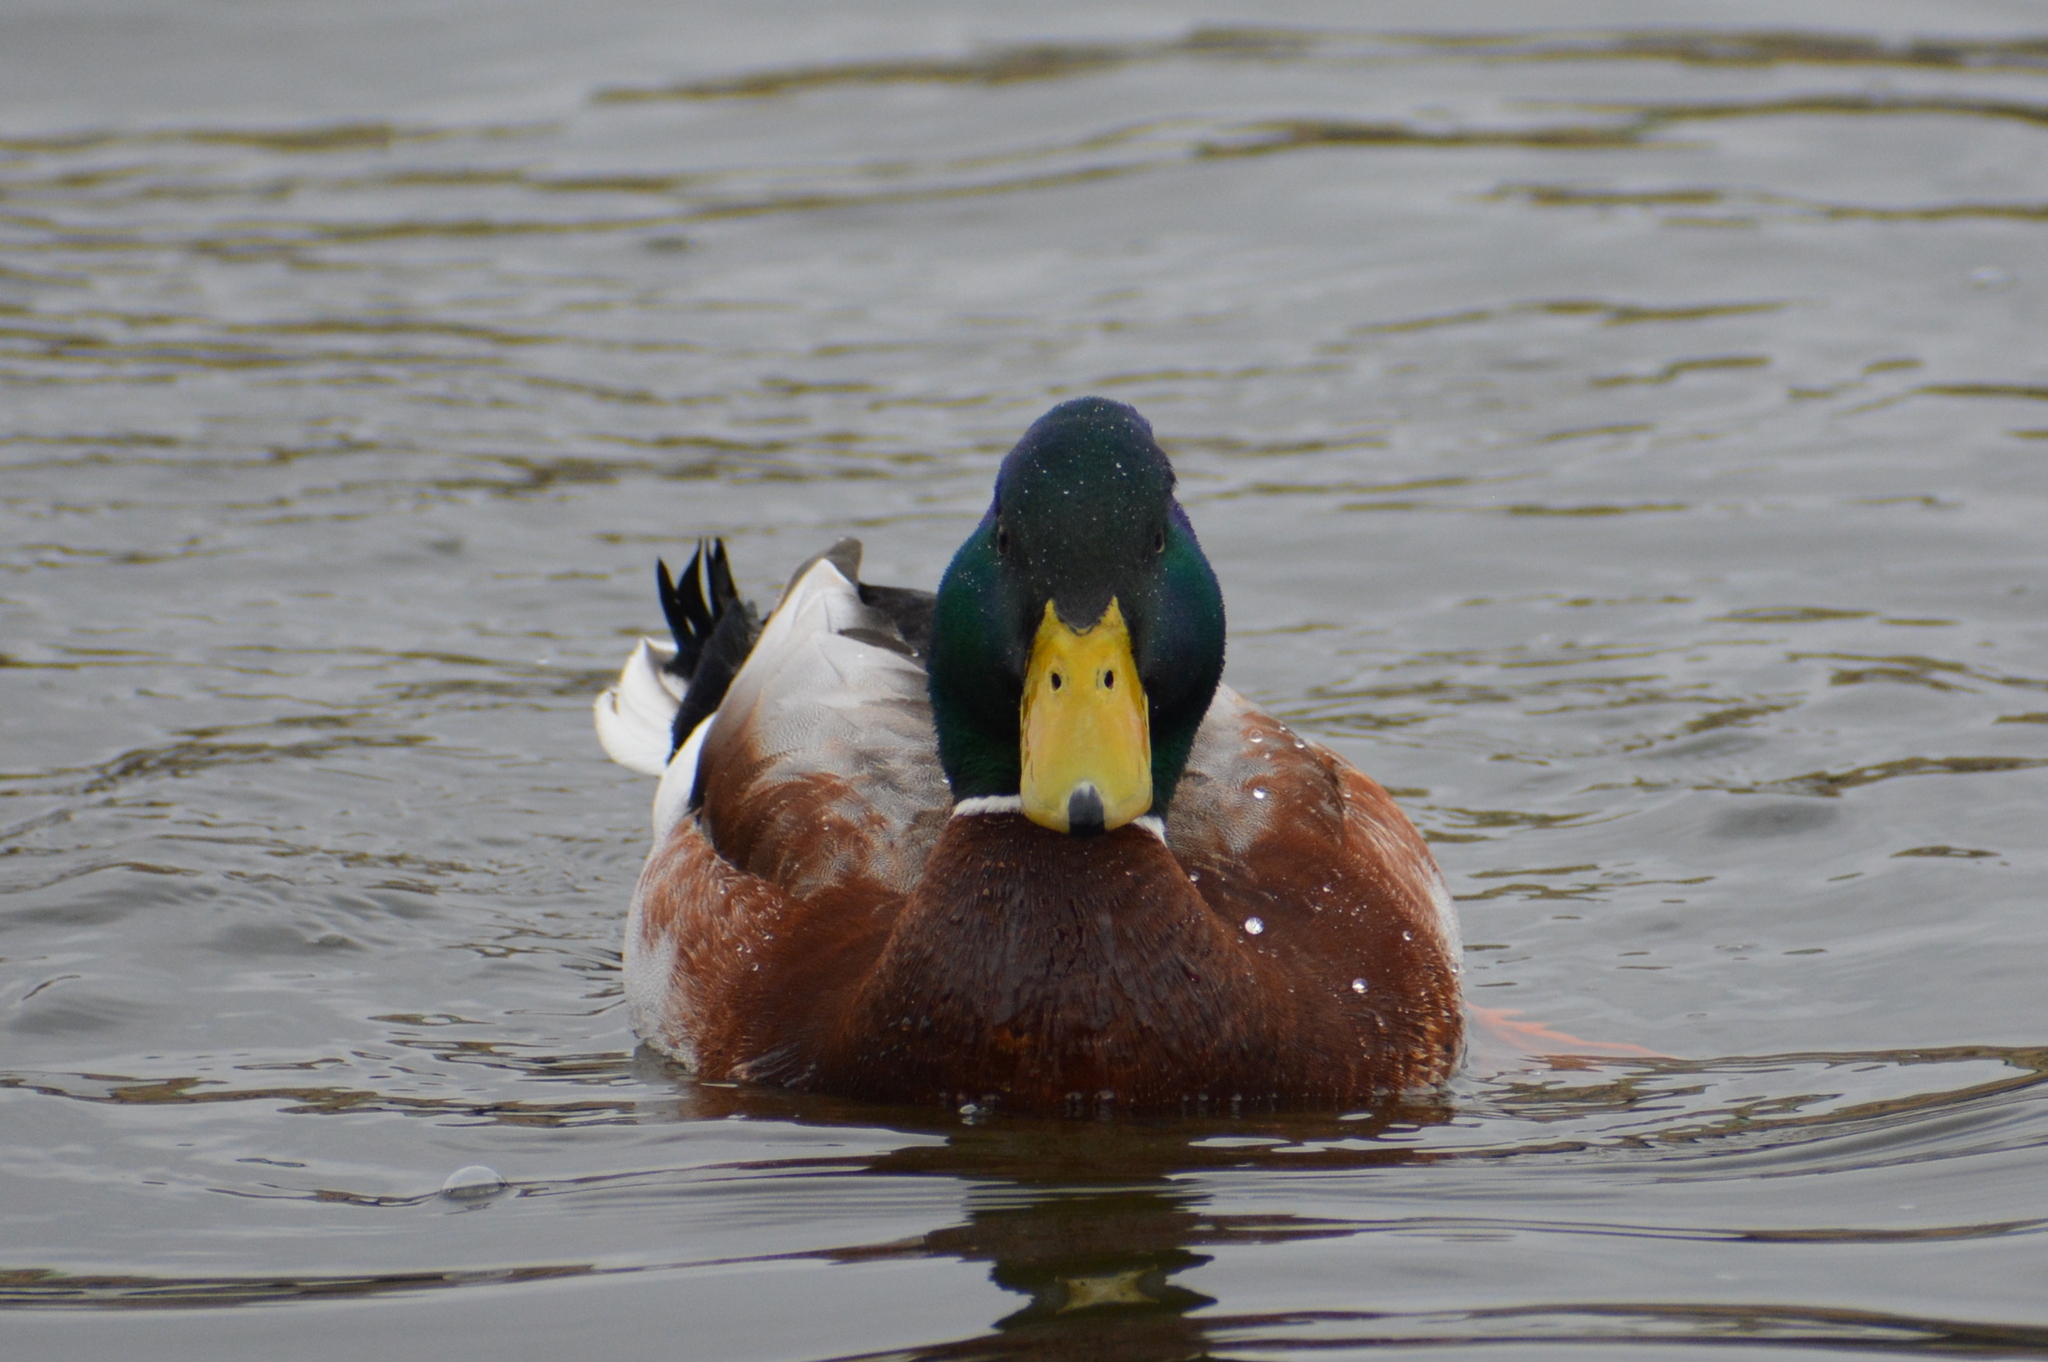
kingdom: Animalia
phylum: Chordata
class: Aves
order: Anseriformes
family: Anatidae
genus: Anas
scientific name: Anas platyrhynchos
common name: Mallard
